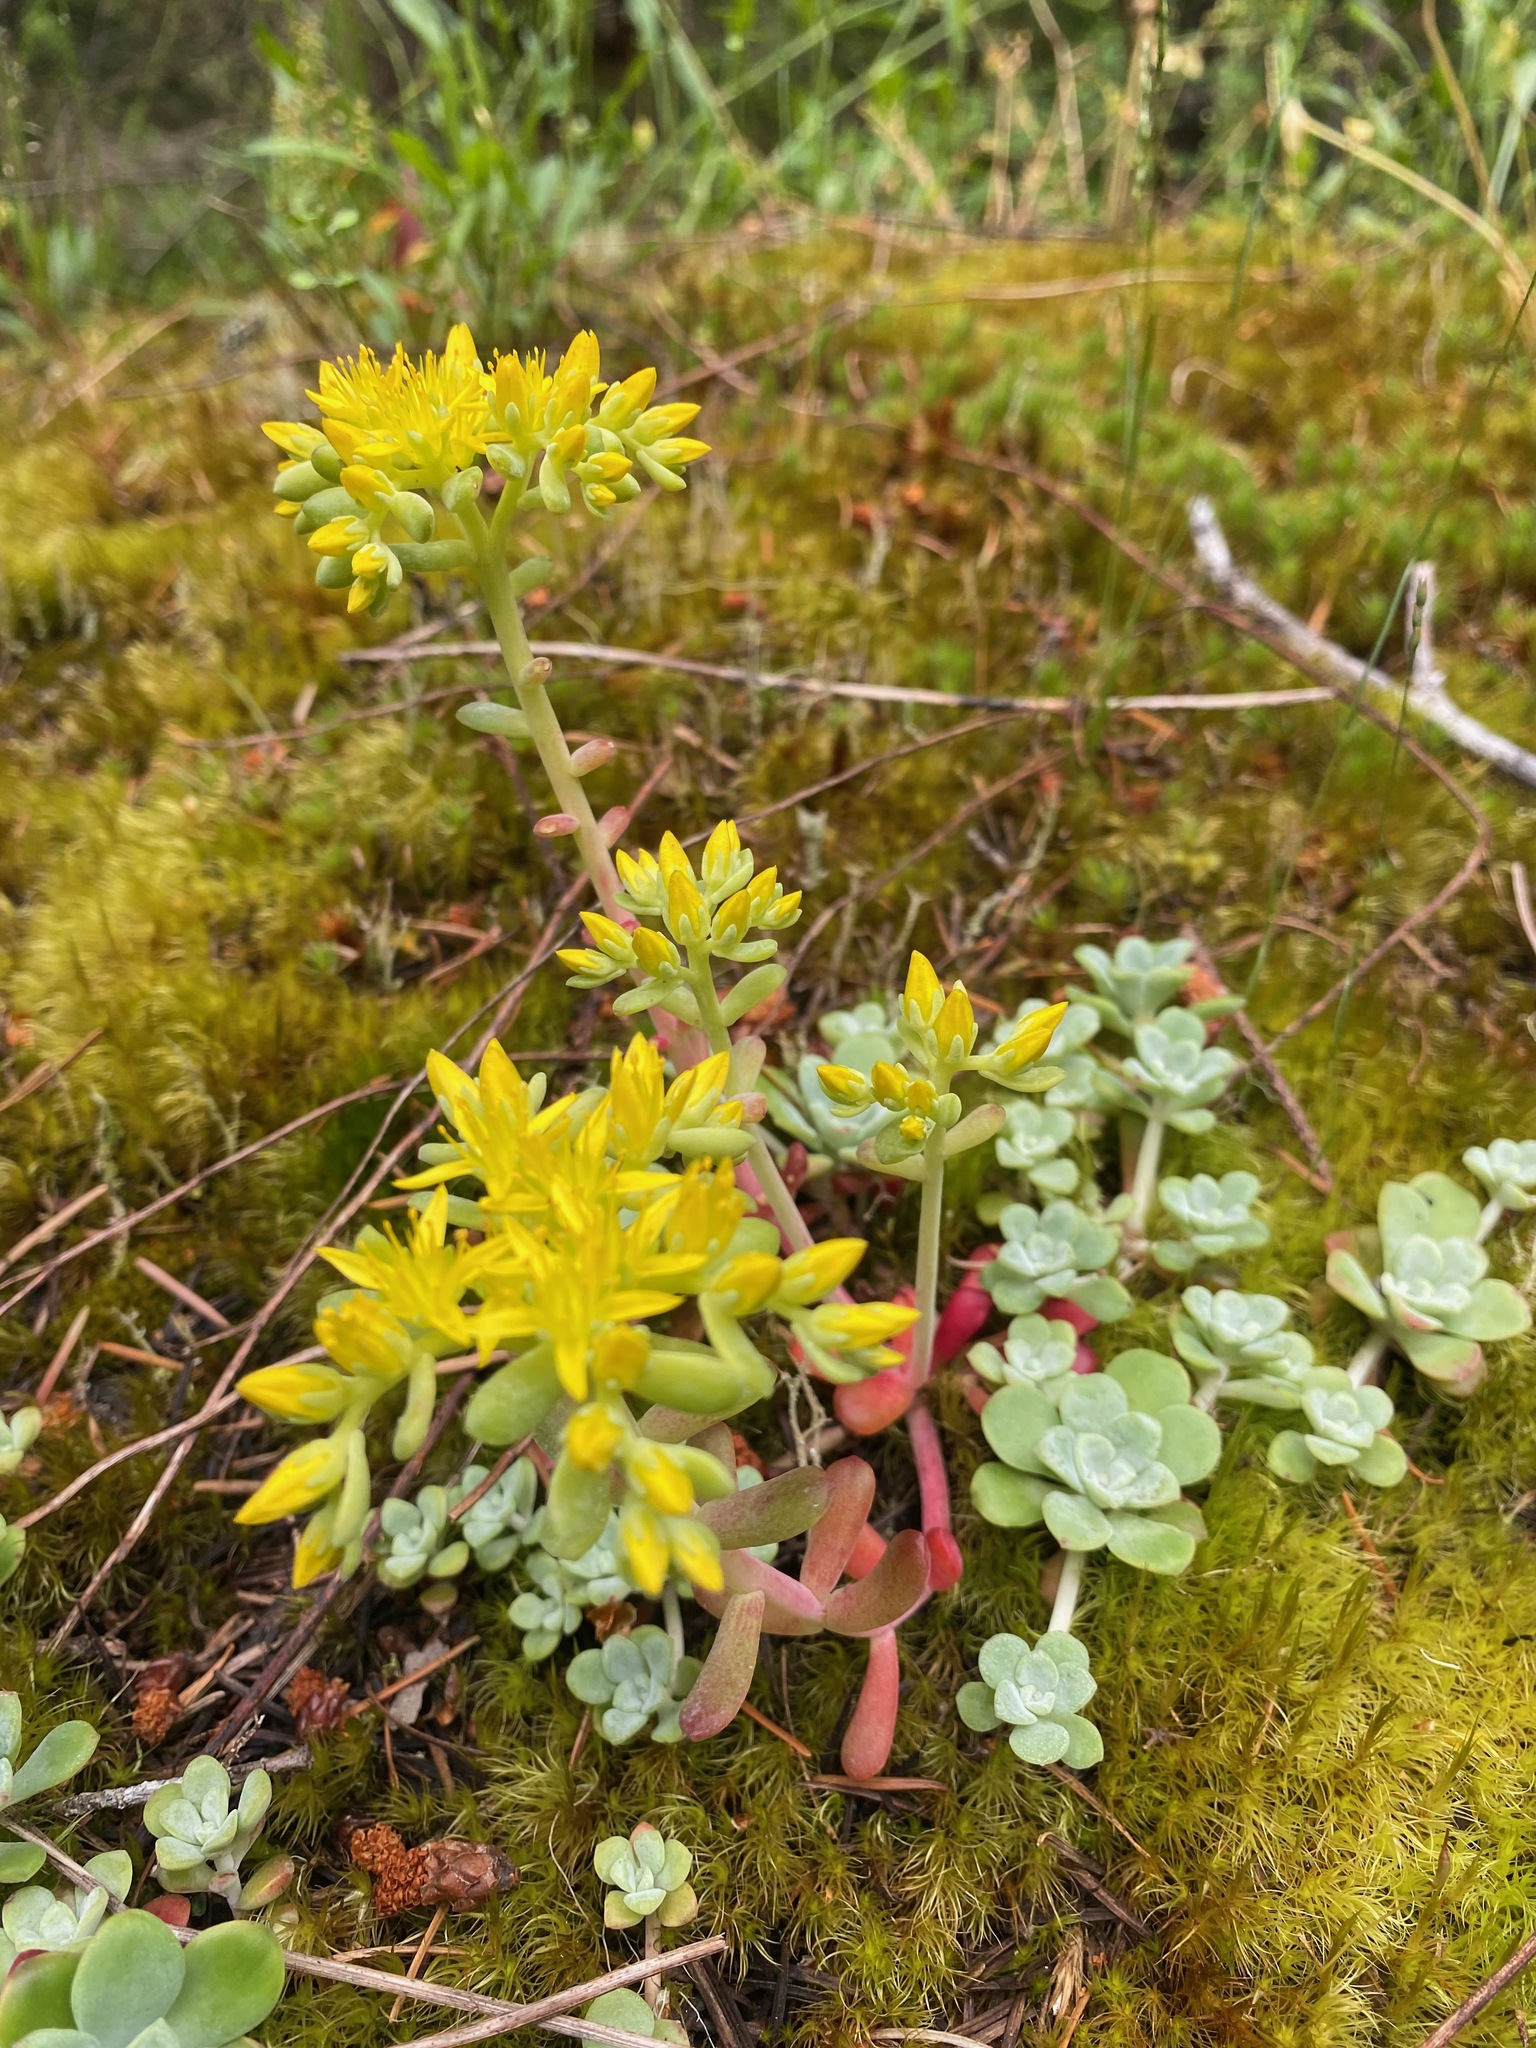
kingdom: Plantae
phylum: Tracheophyta
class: Magnoliopsida
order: Saxifragales
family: Crassulaceae
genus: Sedum
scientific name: Sedum spathulifolium
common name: Colorado stonecrop
